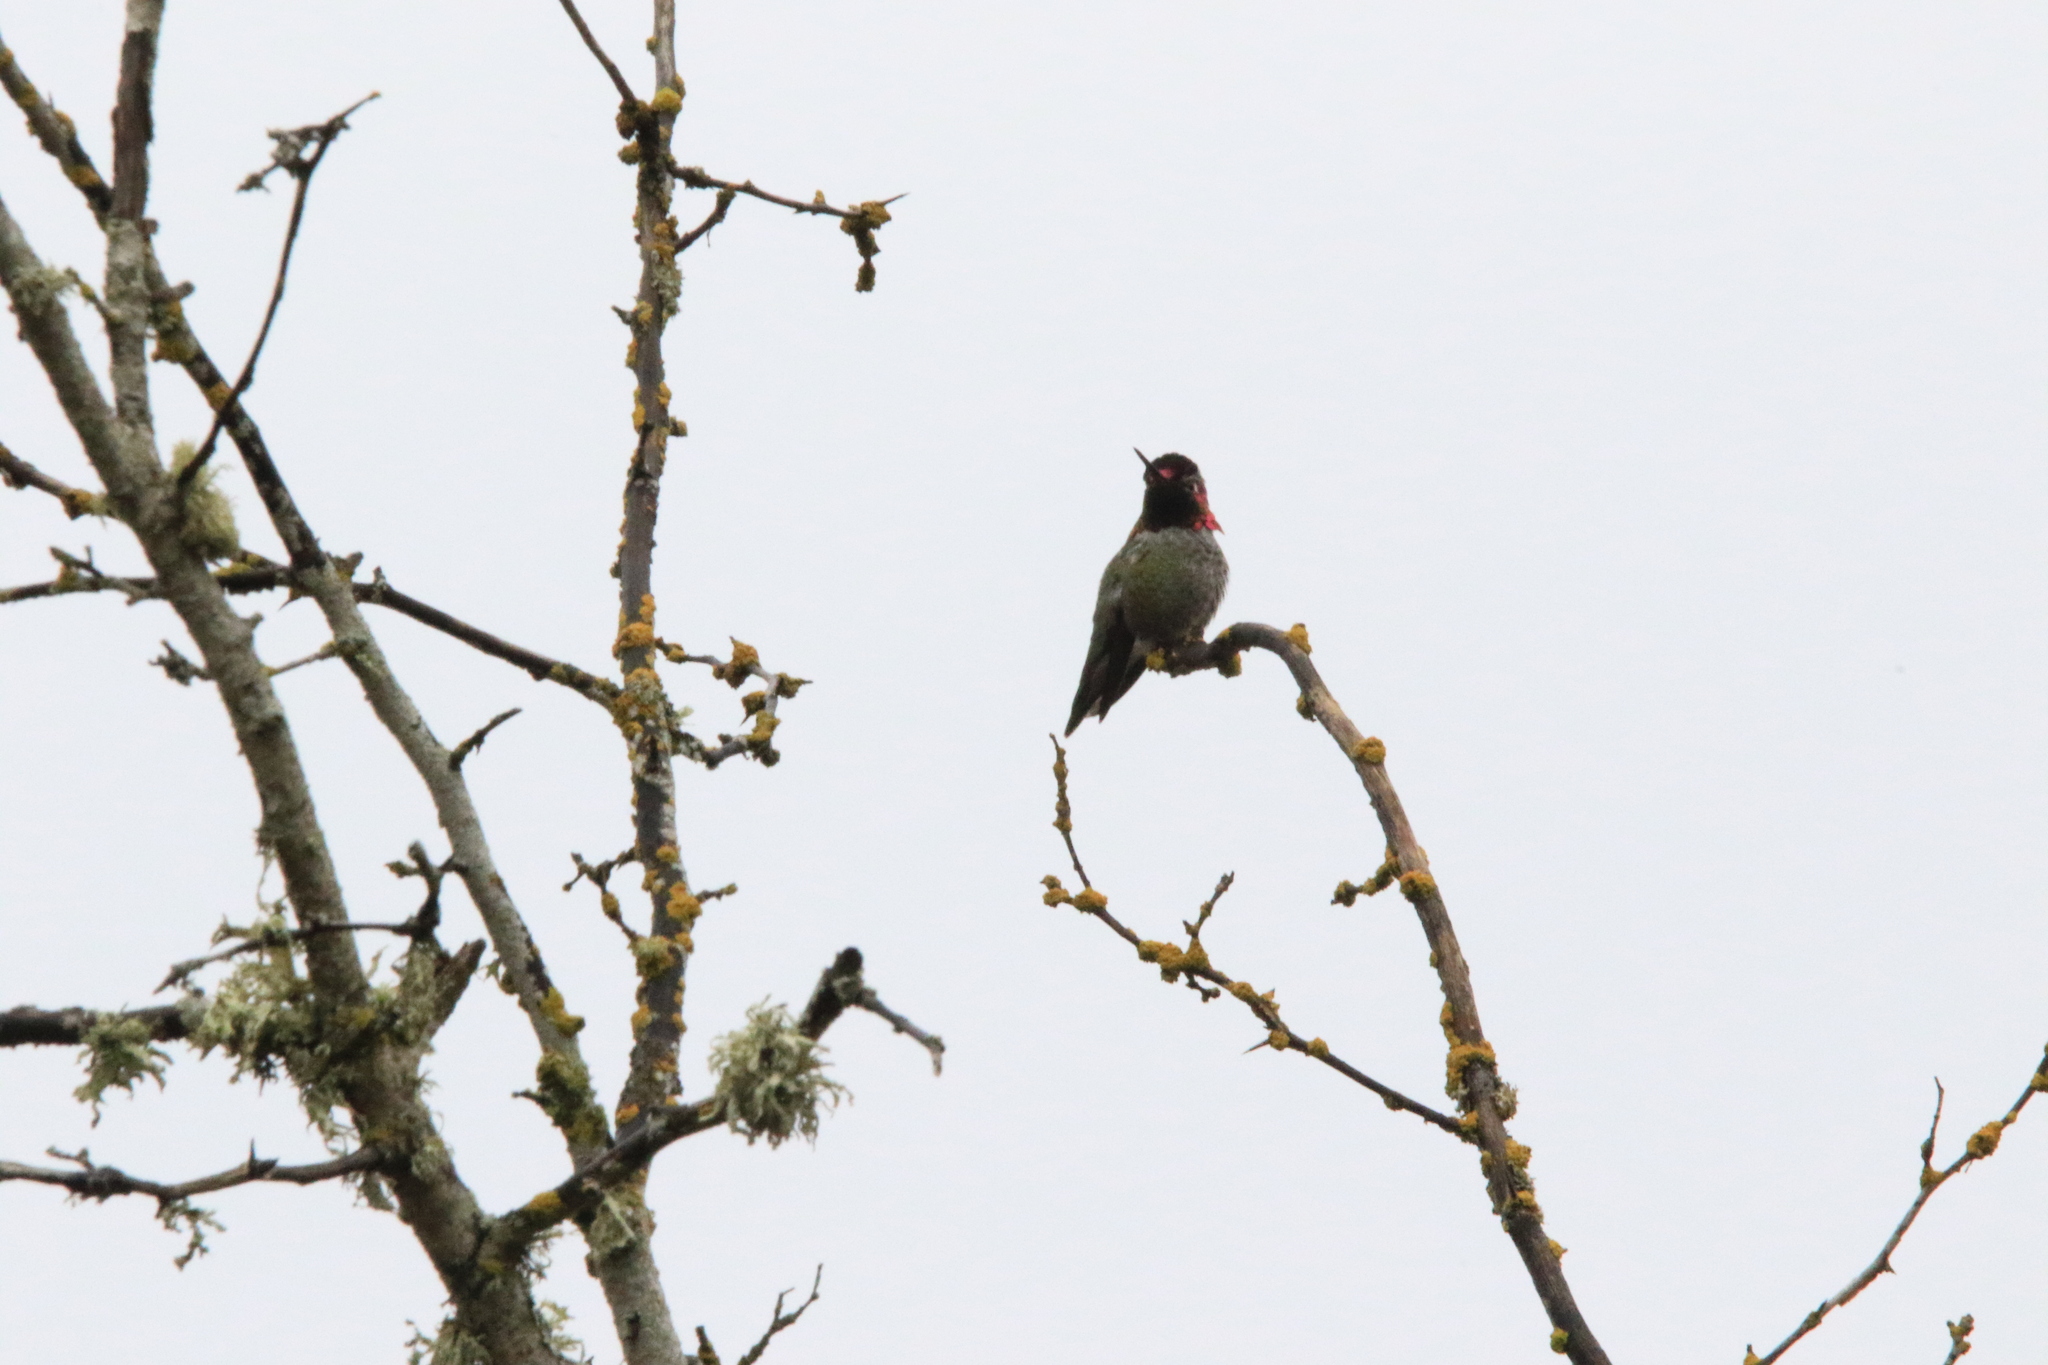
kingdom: Animalia
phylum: Chordata
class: Aves
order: Apodiformes
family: Trochilidae
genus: Calypte
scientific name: Calypte anna
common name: Anna's hummingbird
